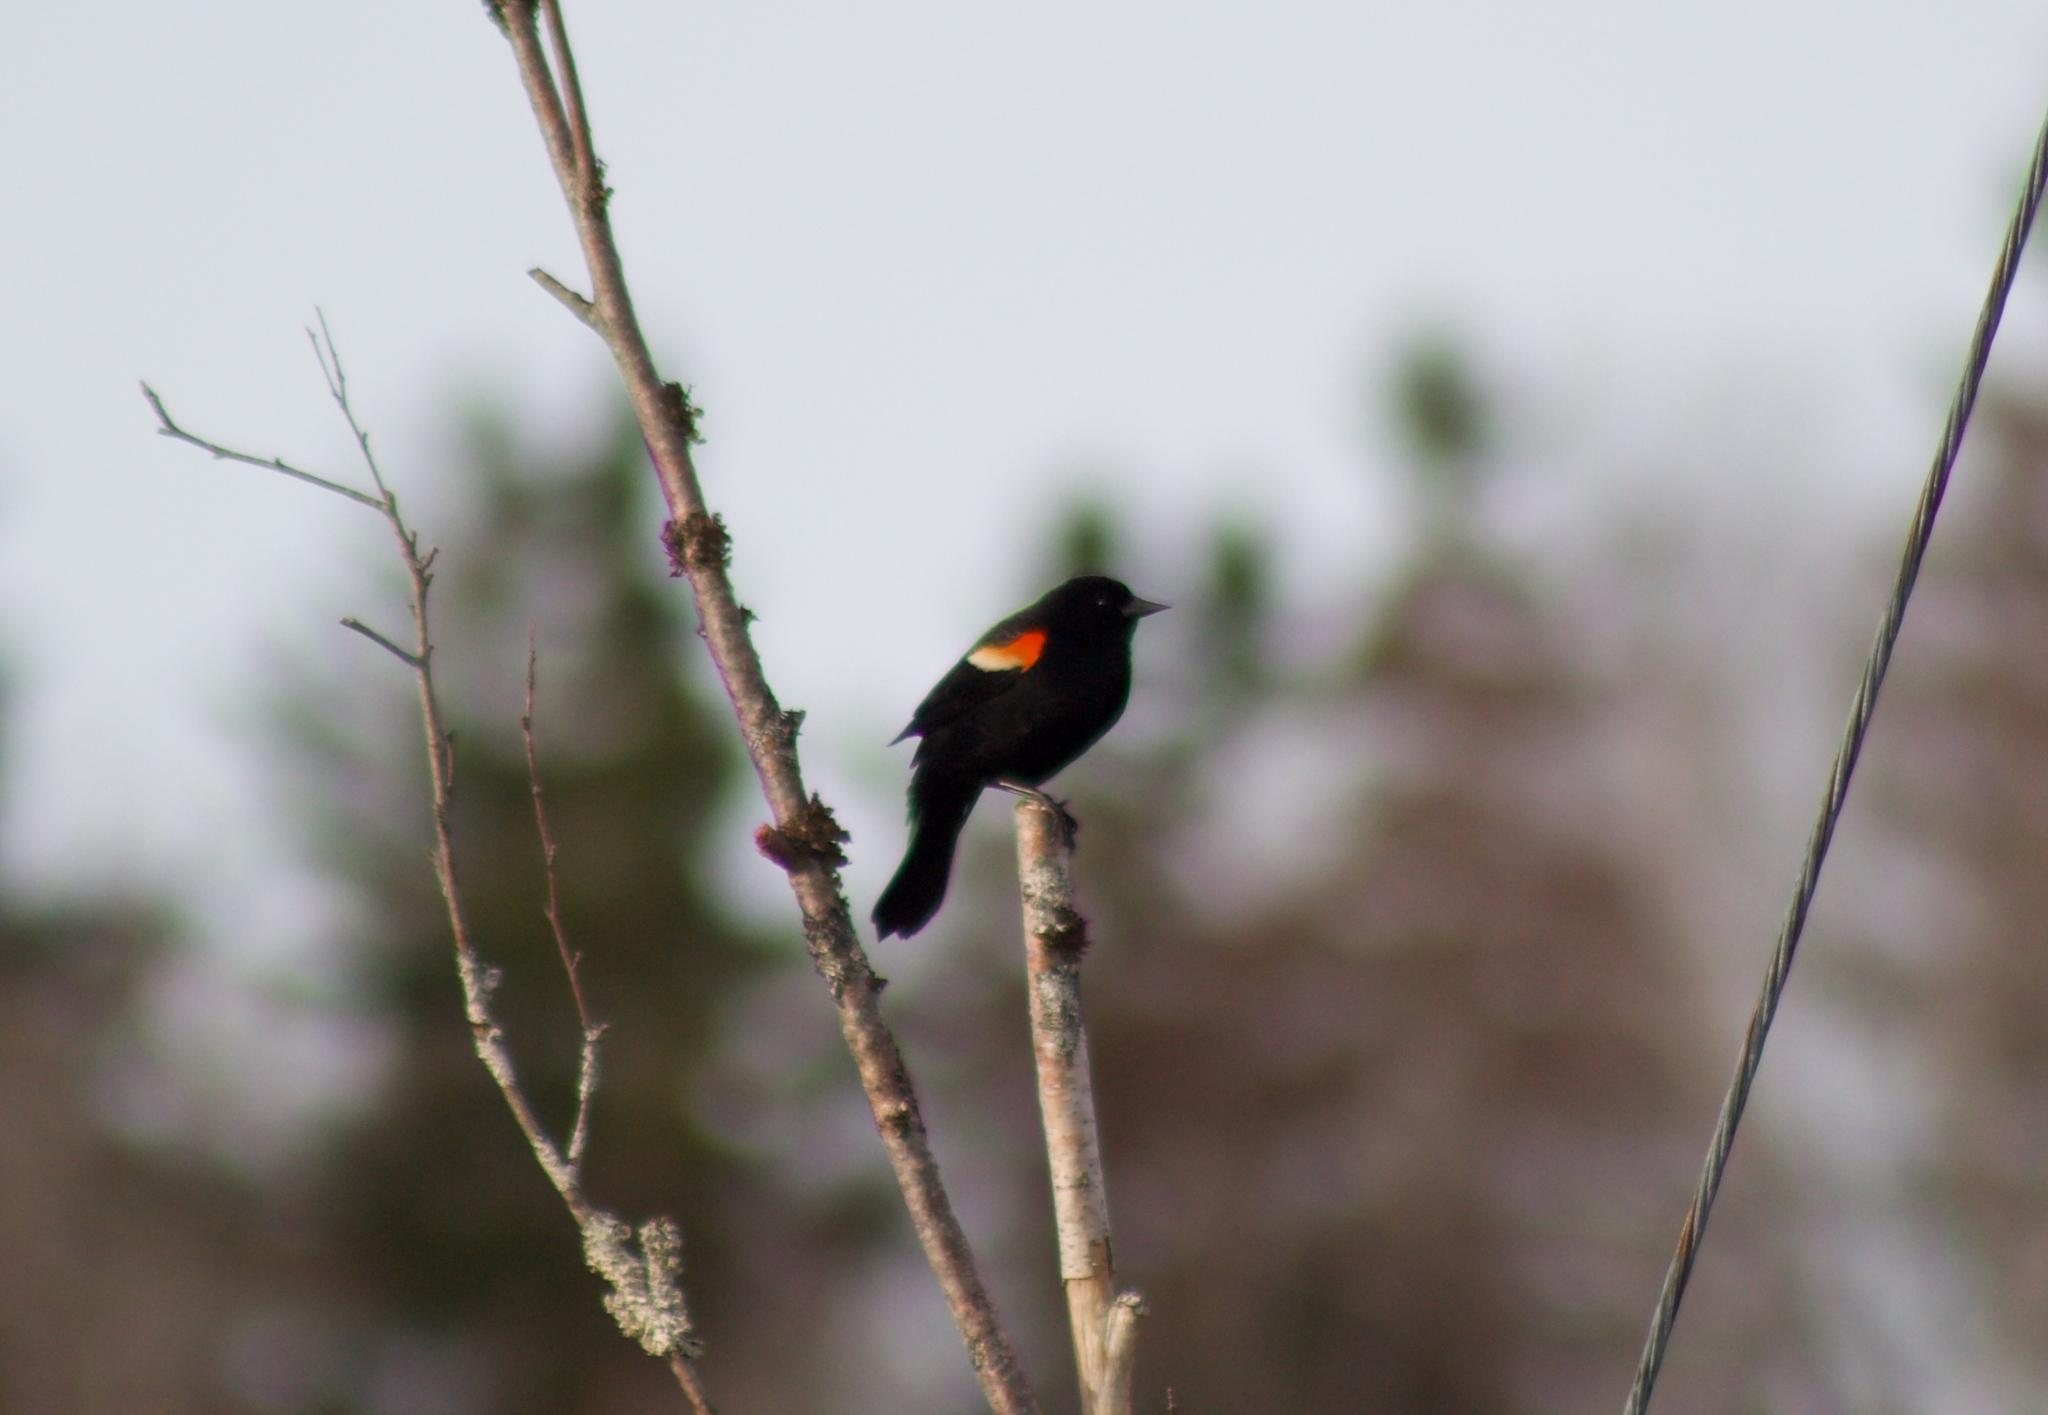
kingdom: Animalia
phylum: Chordata
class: Aves
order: Passeriformes
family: Icteridae
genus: Agelaius
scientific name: Agelaius phoeniceus
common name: Red-winged blackbird
